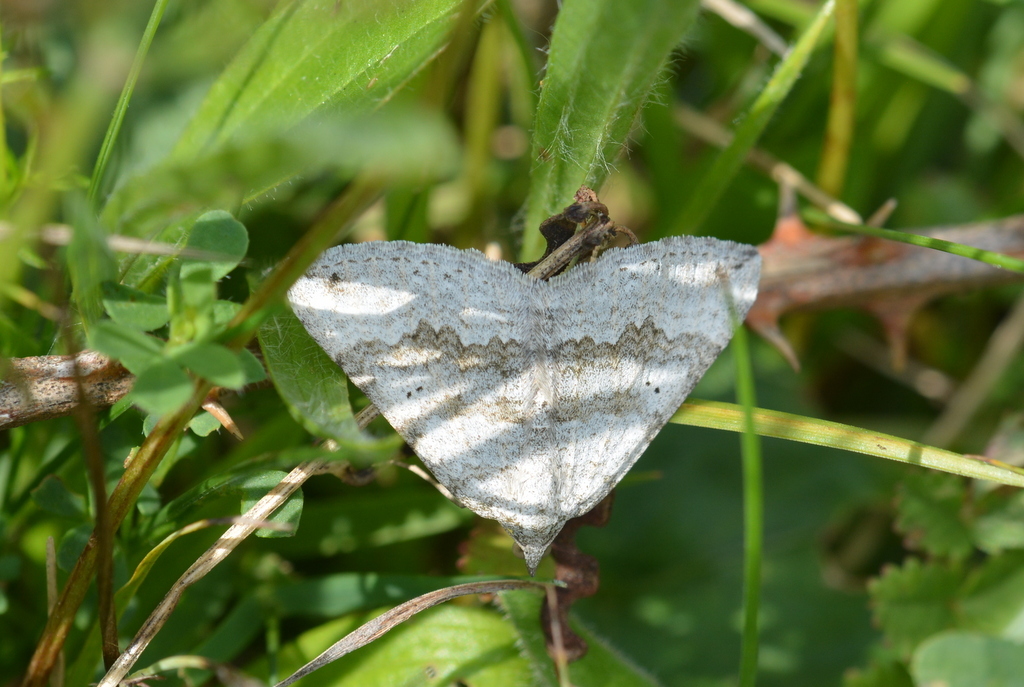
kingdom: Animalia
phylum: Arthropoda
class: Insecta
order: Lepidoptera
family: Geometridae
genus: Scotopteryx
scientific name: Scotopteryx bipunctaria
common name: Chalk carpet
